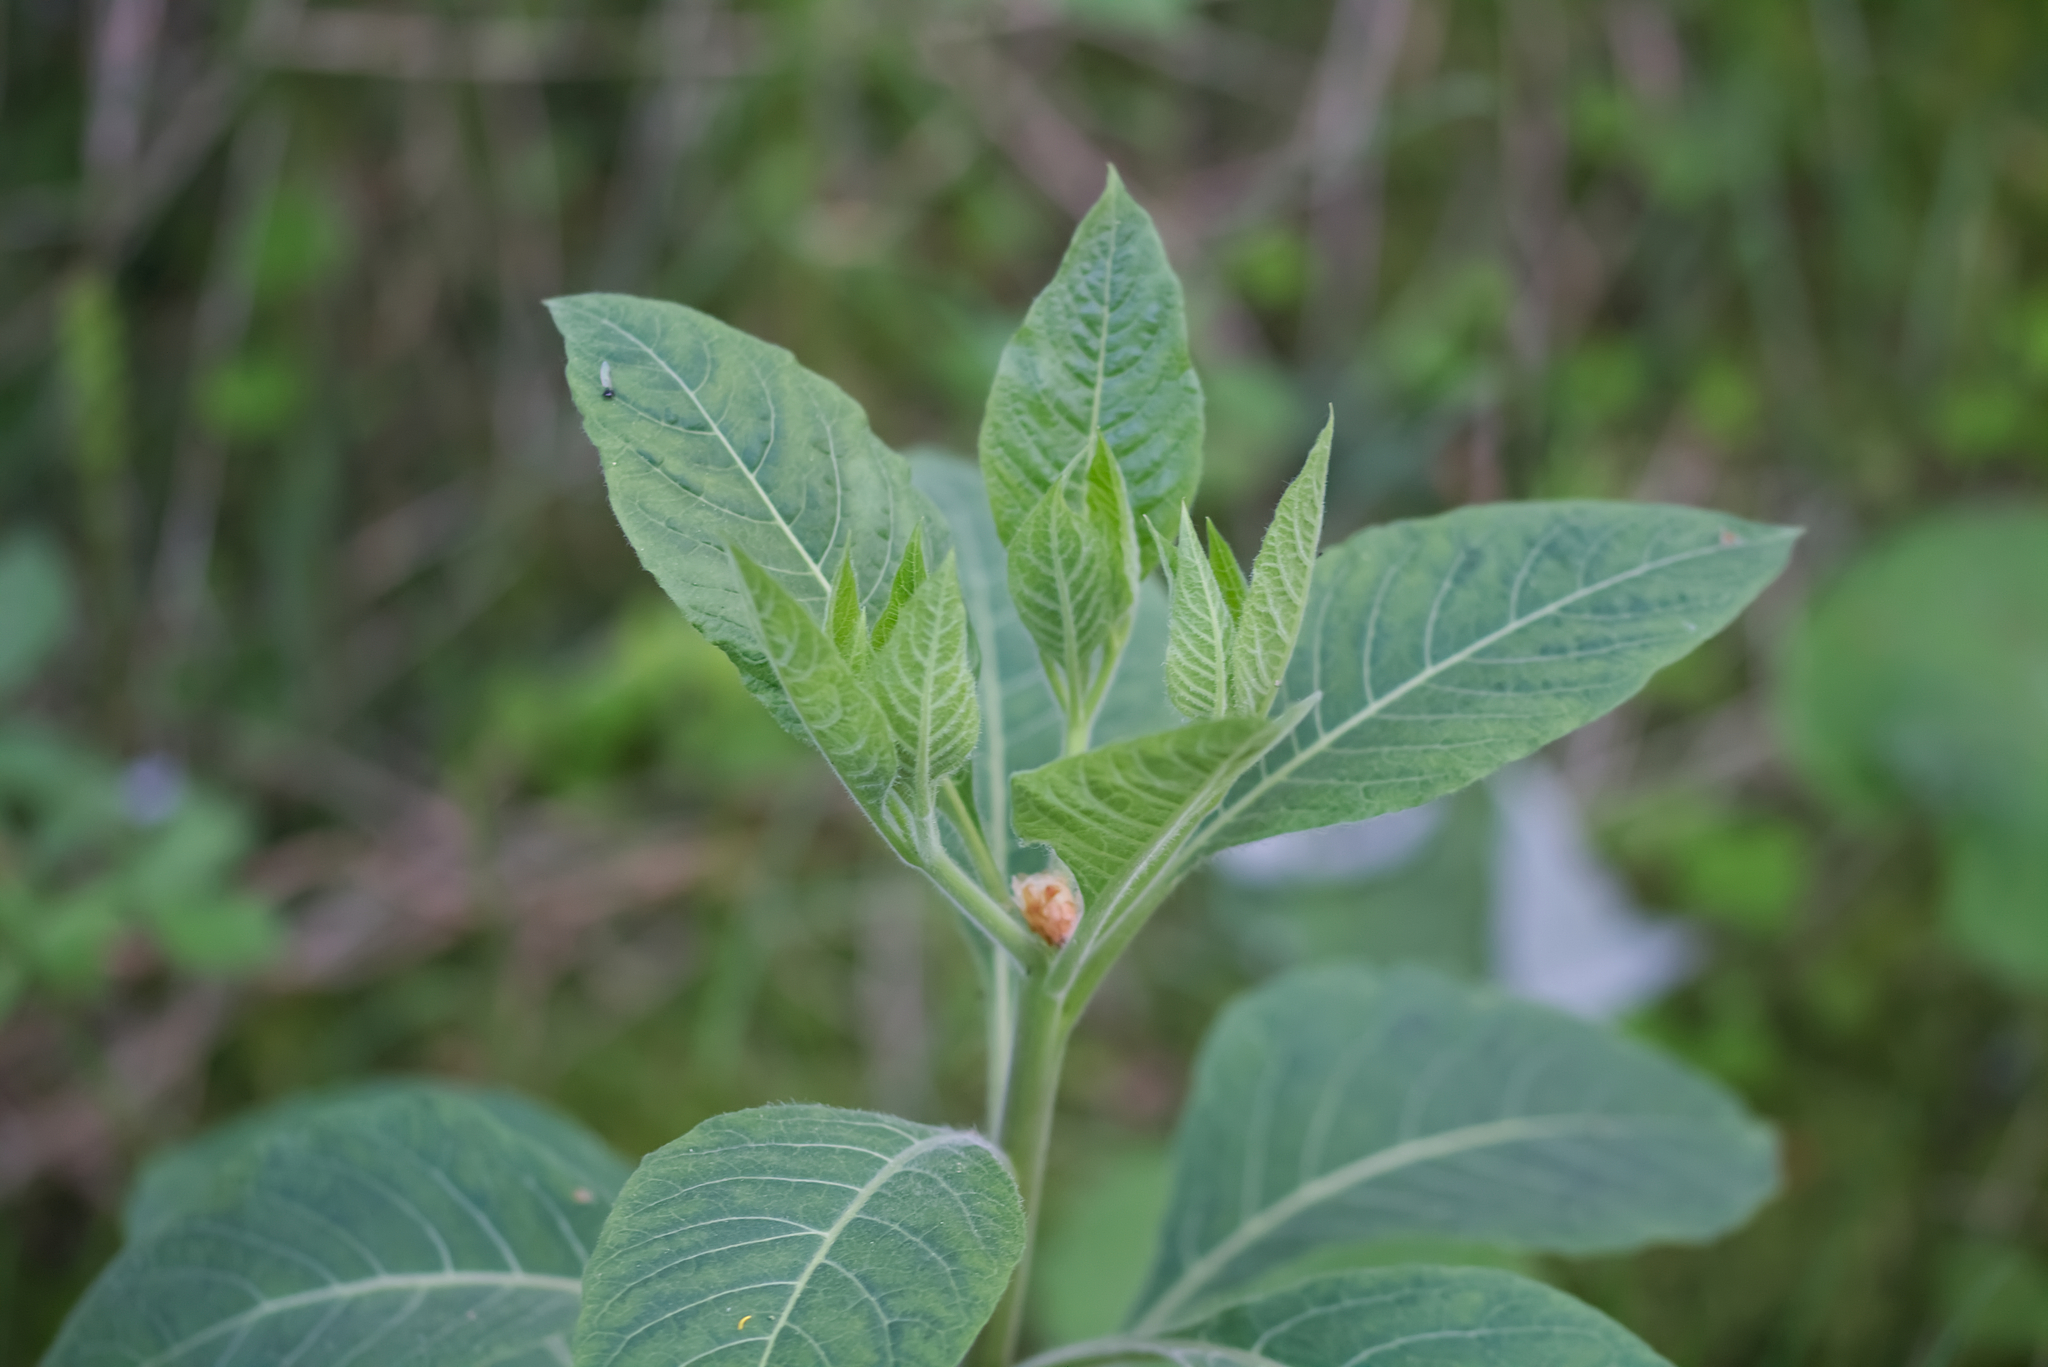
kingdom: Plantae
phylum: Tracheophyta
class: Magnoliopsida
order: Solanales
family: Solanaceae
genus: Atropa
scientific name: Atropa belladonna
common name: Deadly nightshade
